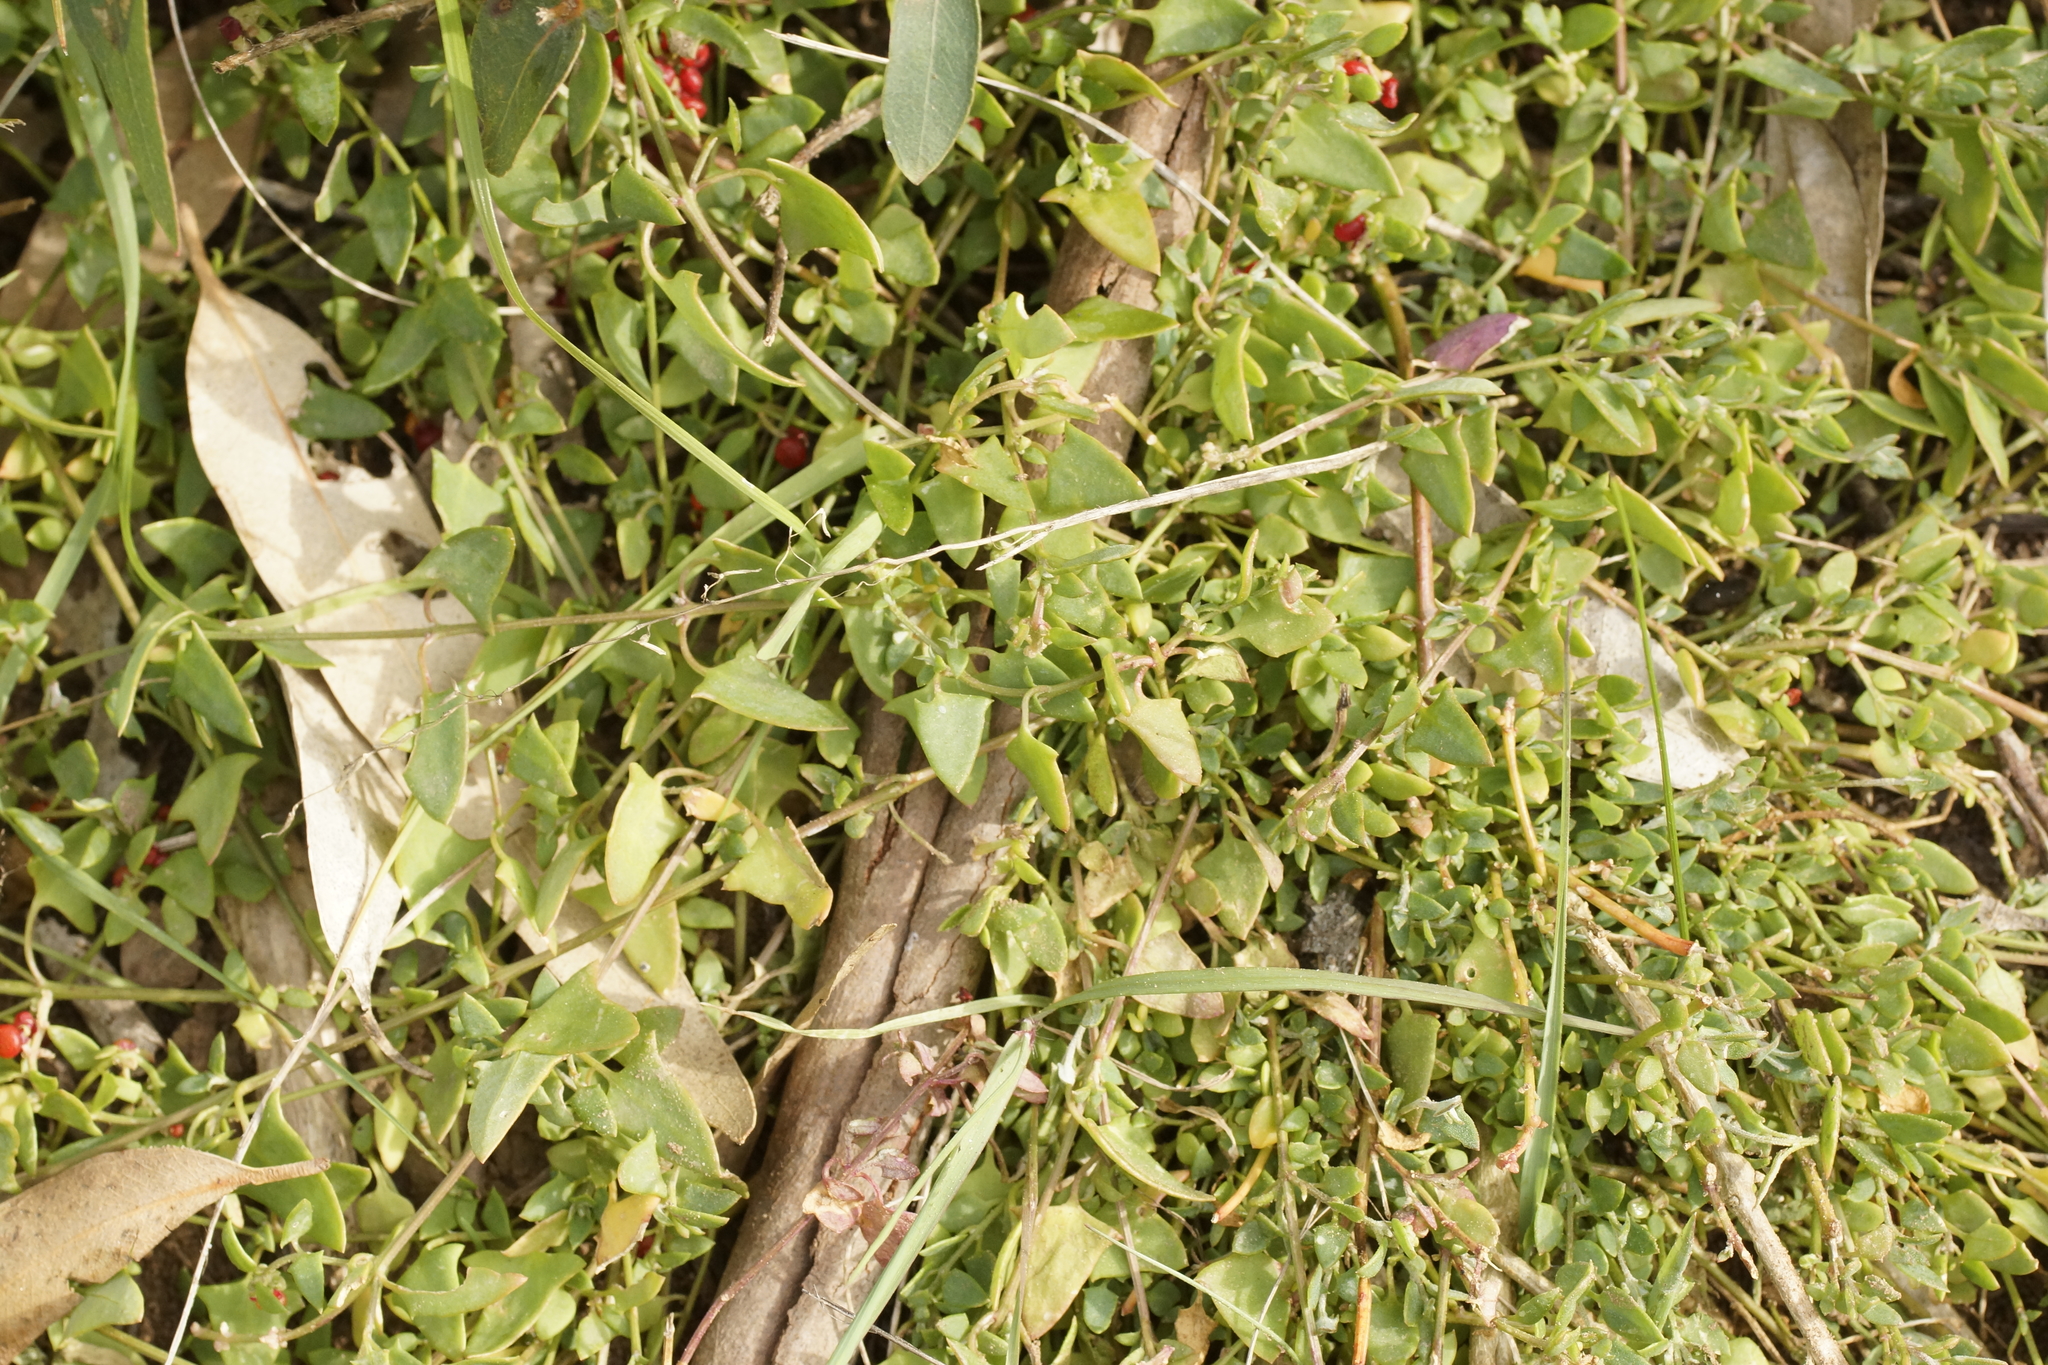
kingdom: Plantae
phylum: Tracheophyta
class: Magnoliopsida
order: Caryophyllales
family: Amaranthaceae
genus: Atriplex
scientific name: Atriplex semibaccata
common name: Australian saltbush
